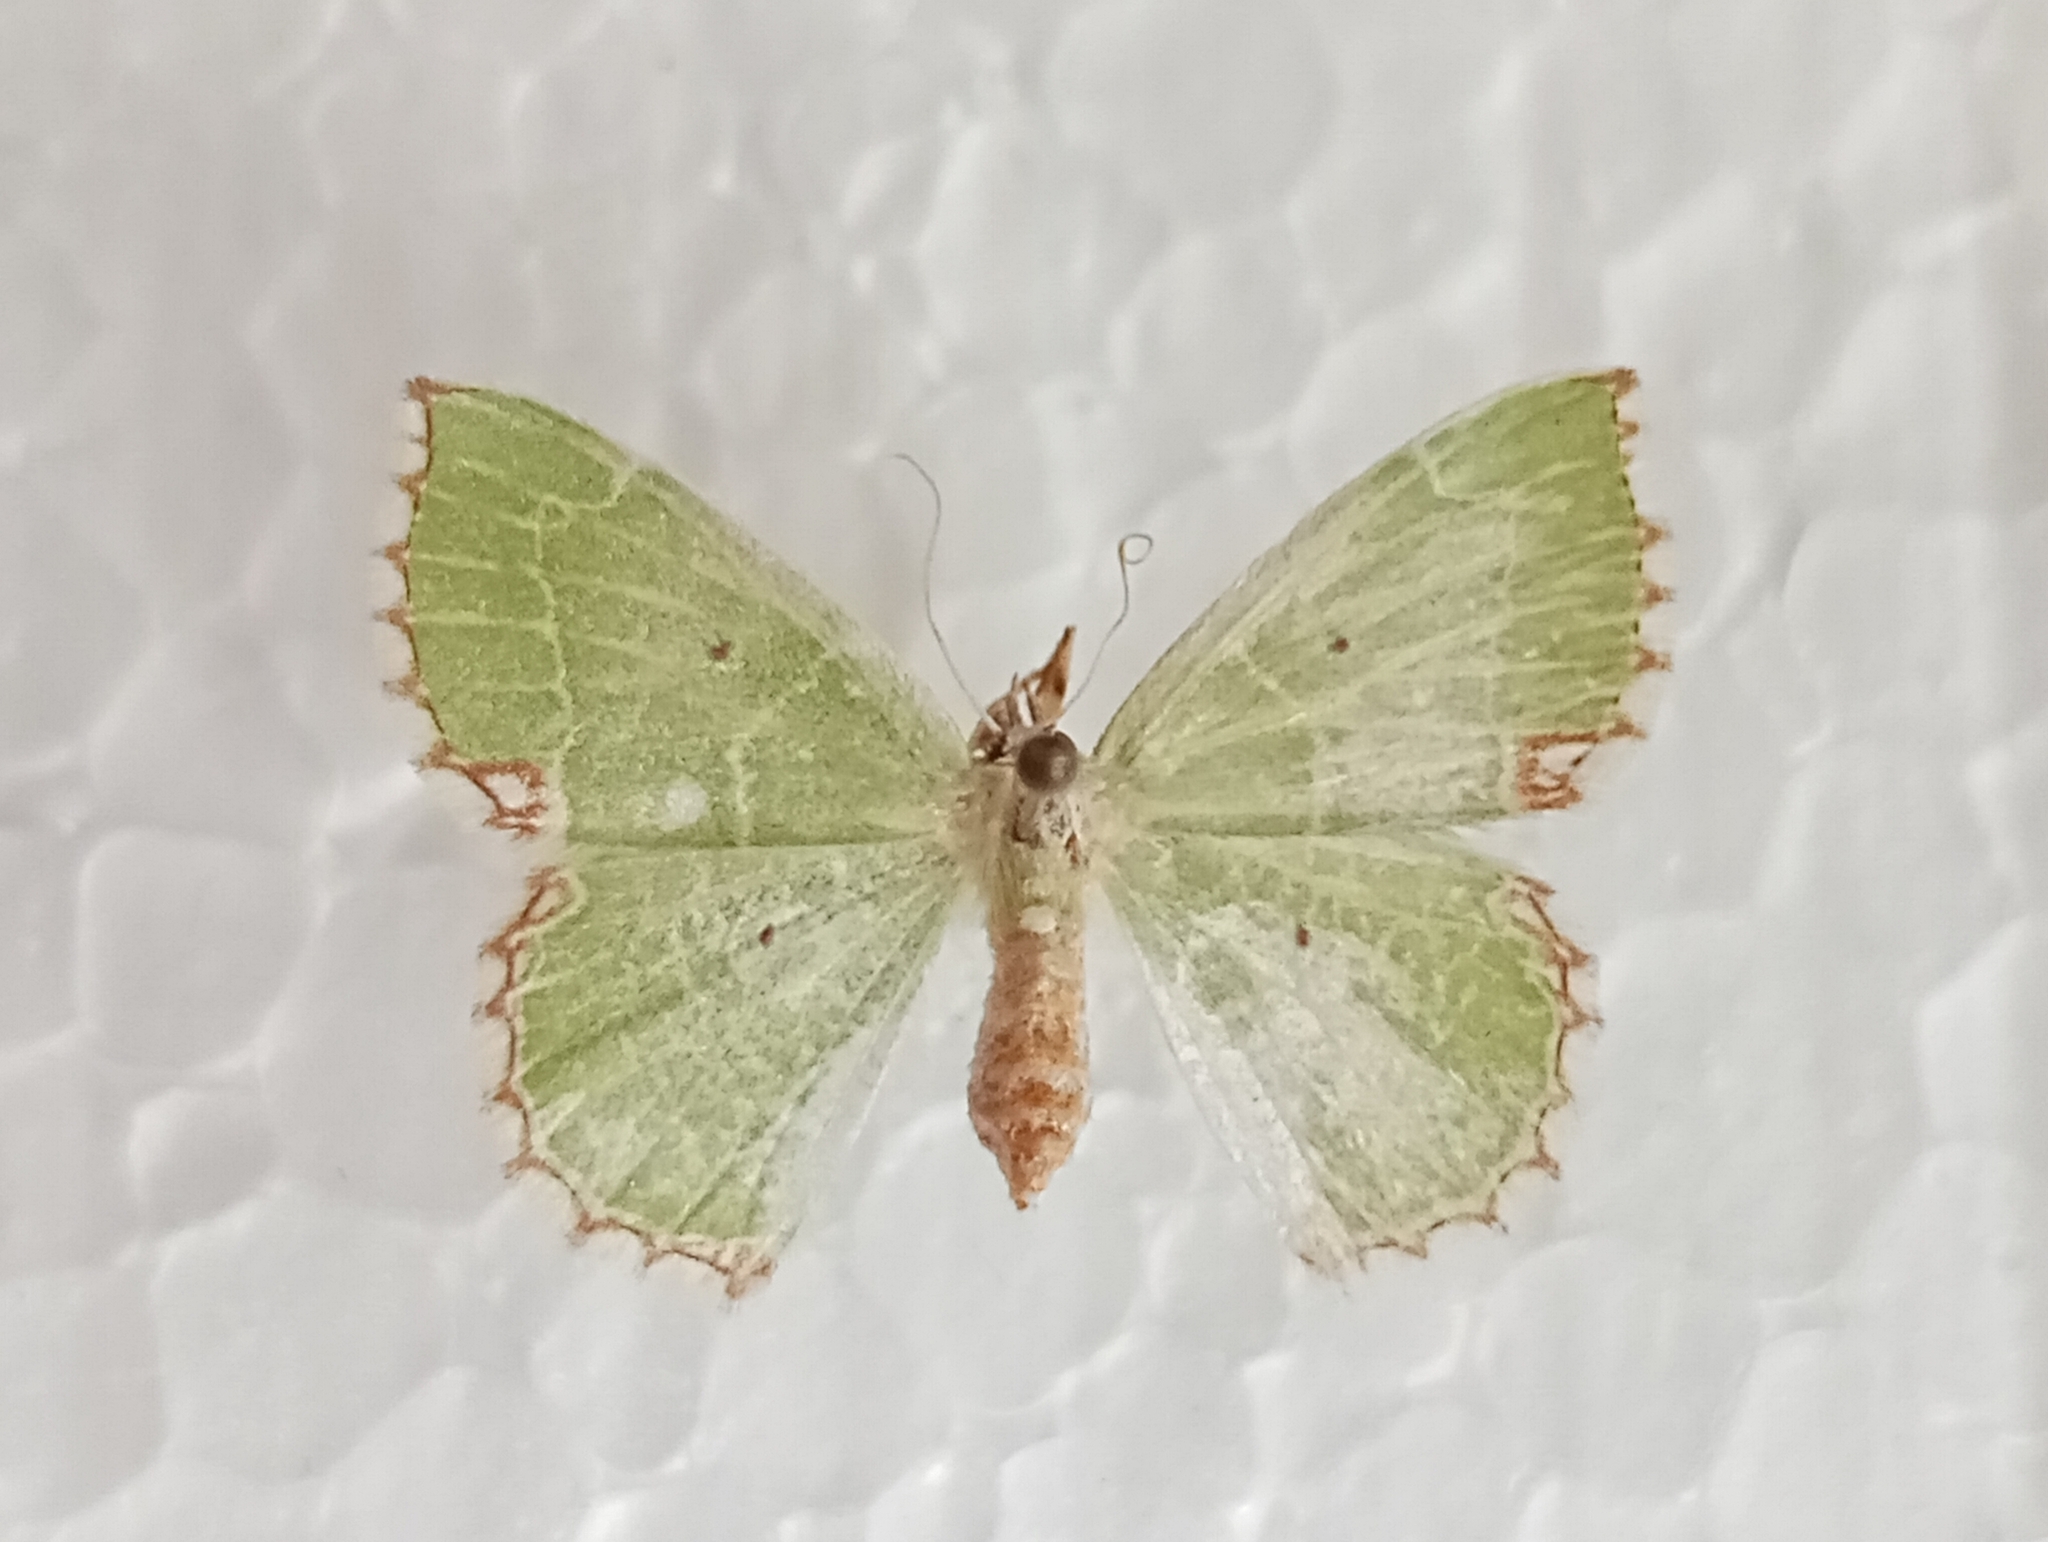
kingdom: Animalia
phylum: Arthropoda
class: Insecta
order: Lepidoptera
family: Geometridae
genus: Proteuchloris
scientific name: Proteuchloris neriaria
